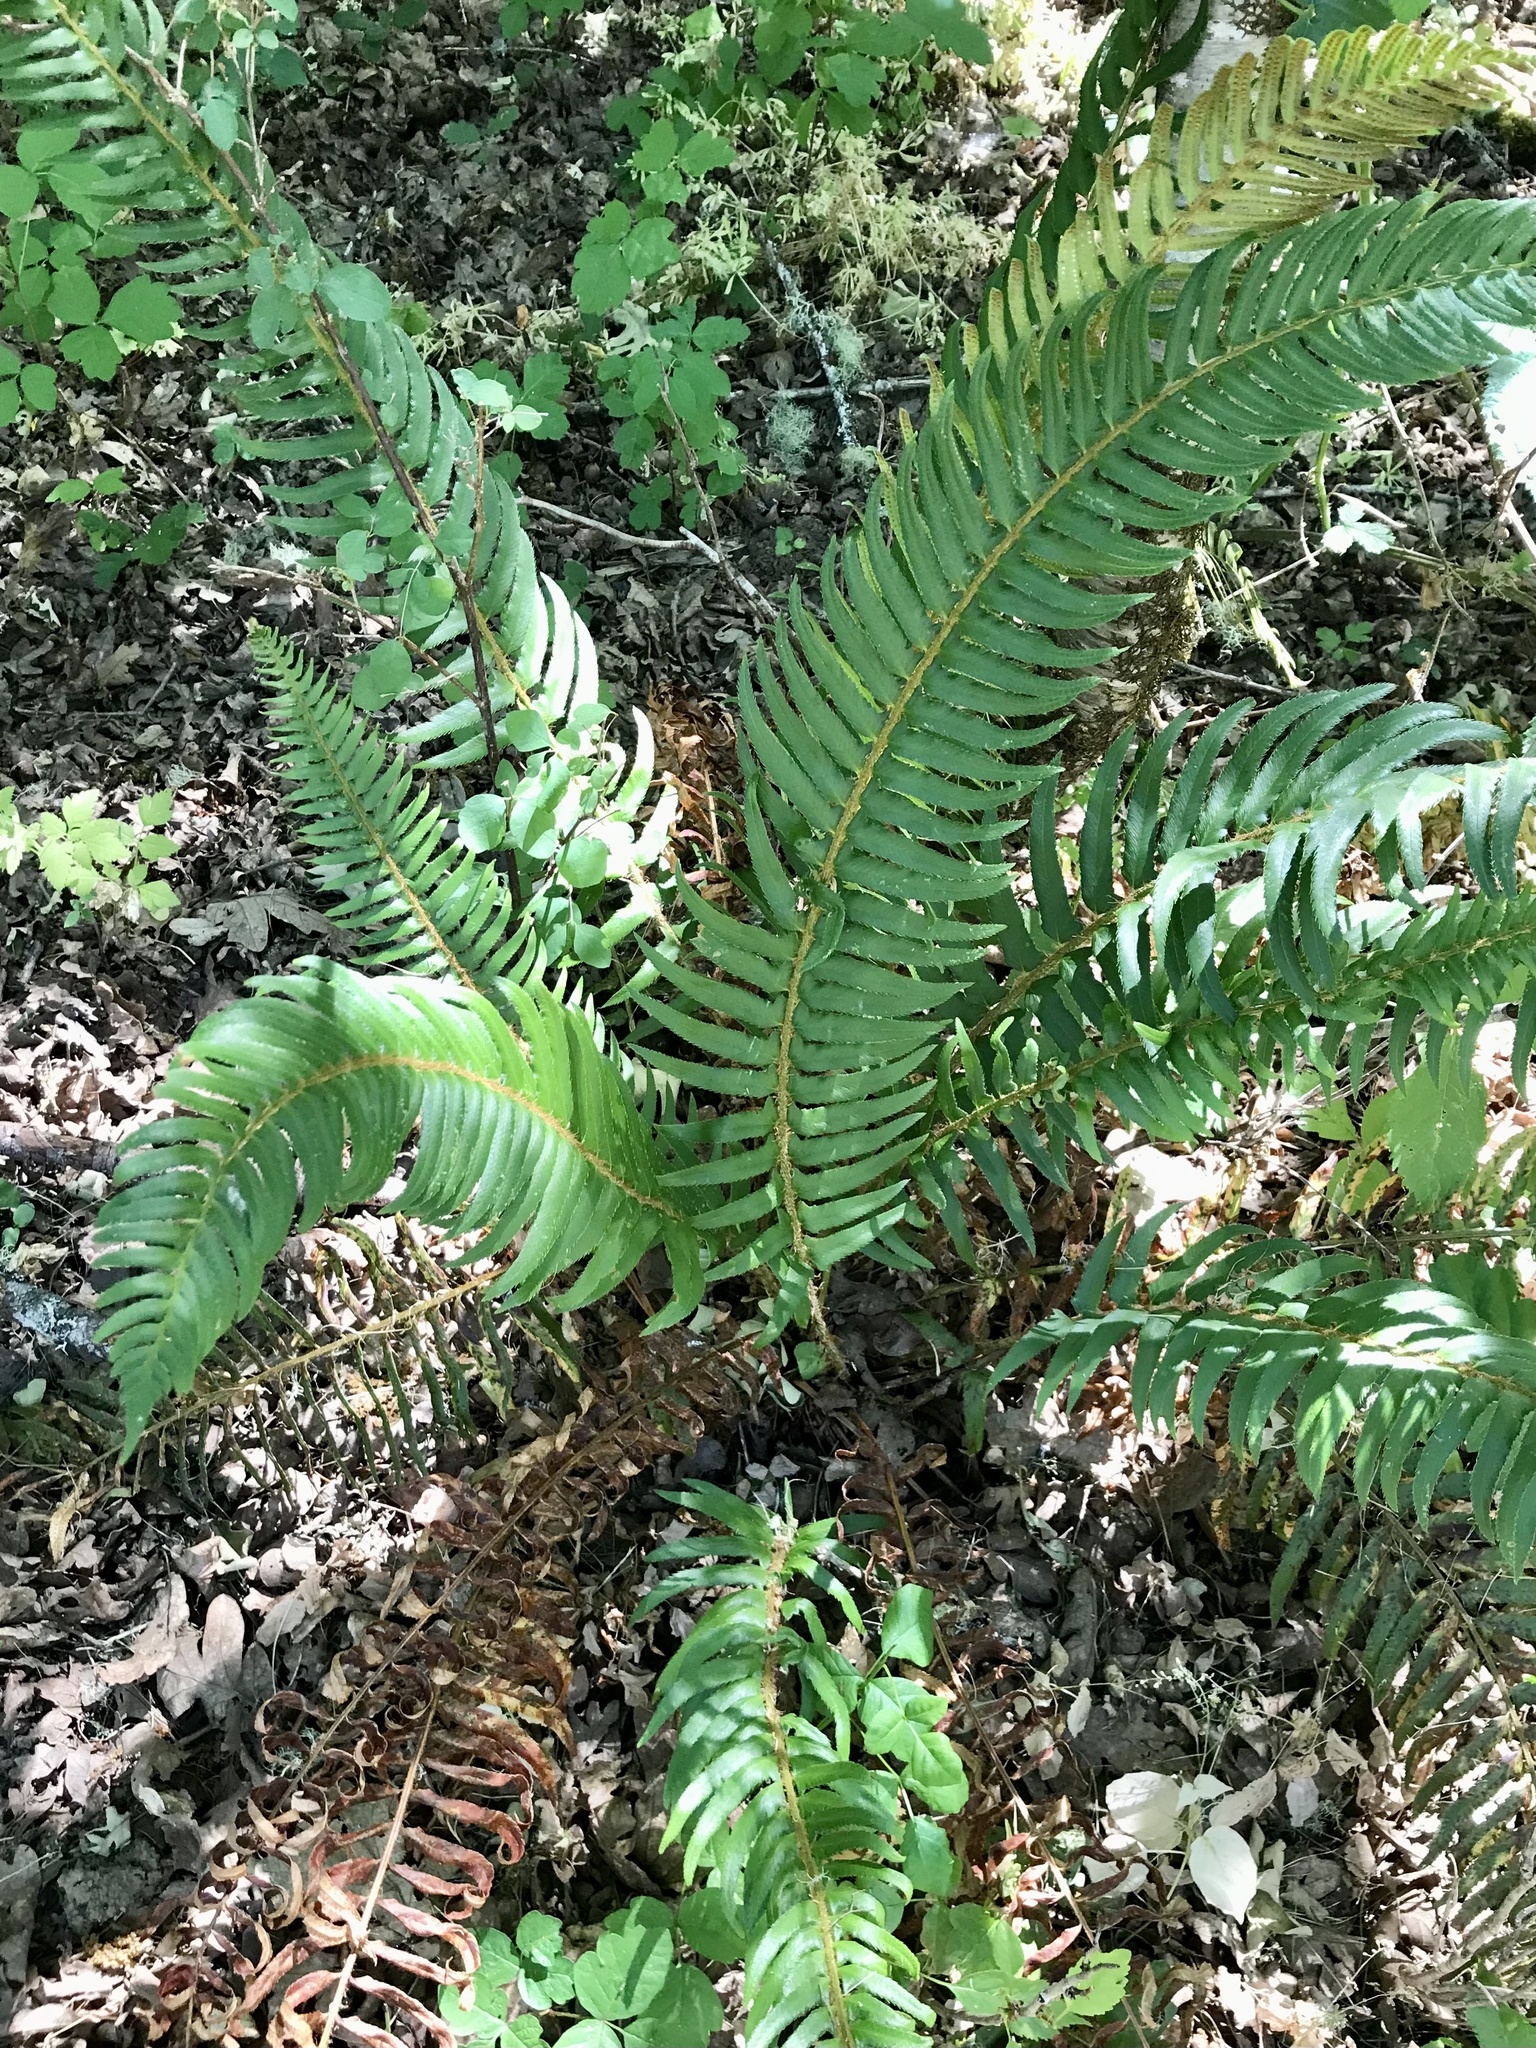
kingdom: Plantae
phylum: Tracheophyta
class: Polypodiopsida
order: Polypodiales
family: Dryopteridaceae
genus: Polystichum
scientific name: Polystichum munitum
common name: Western sword-fern
